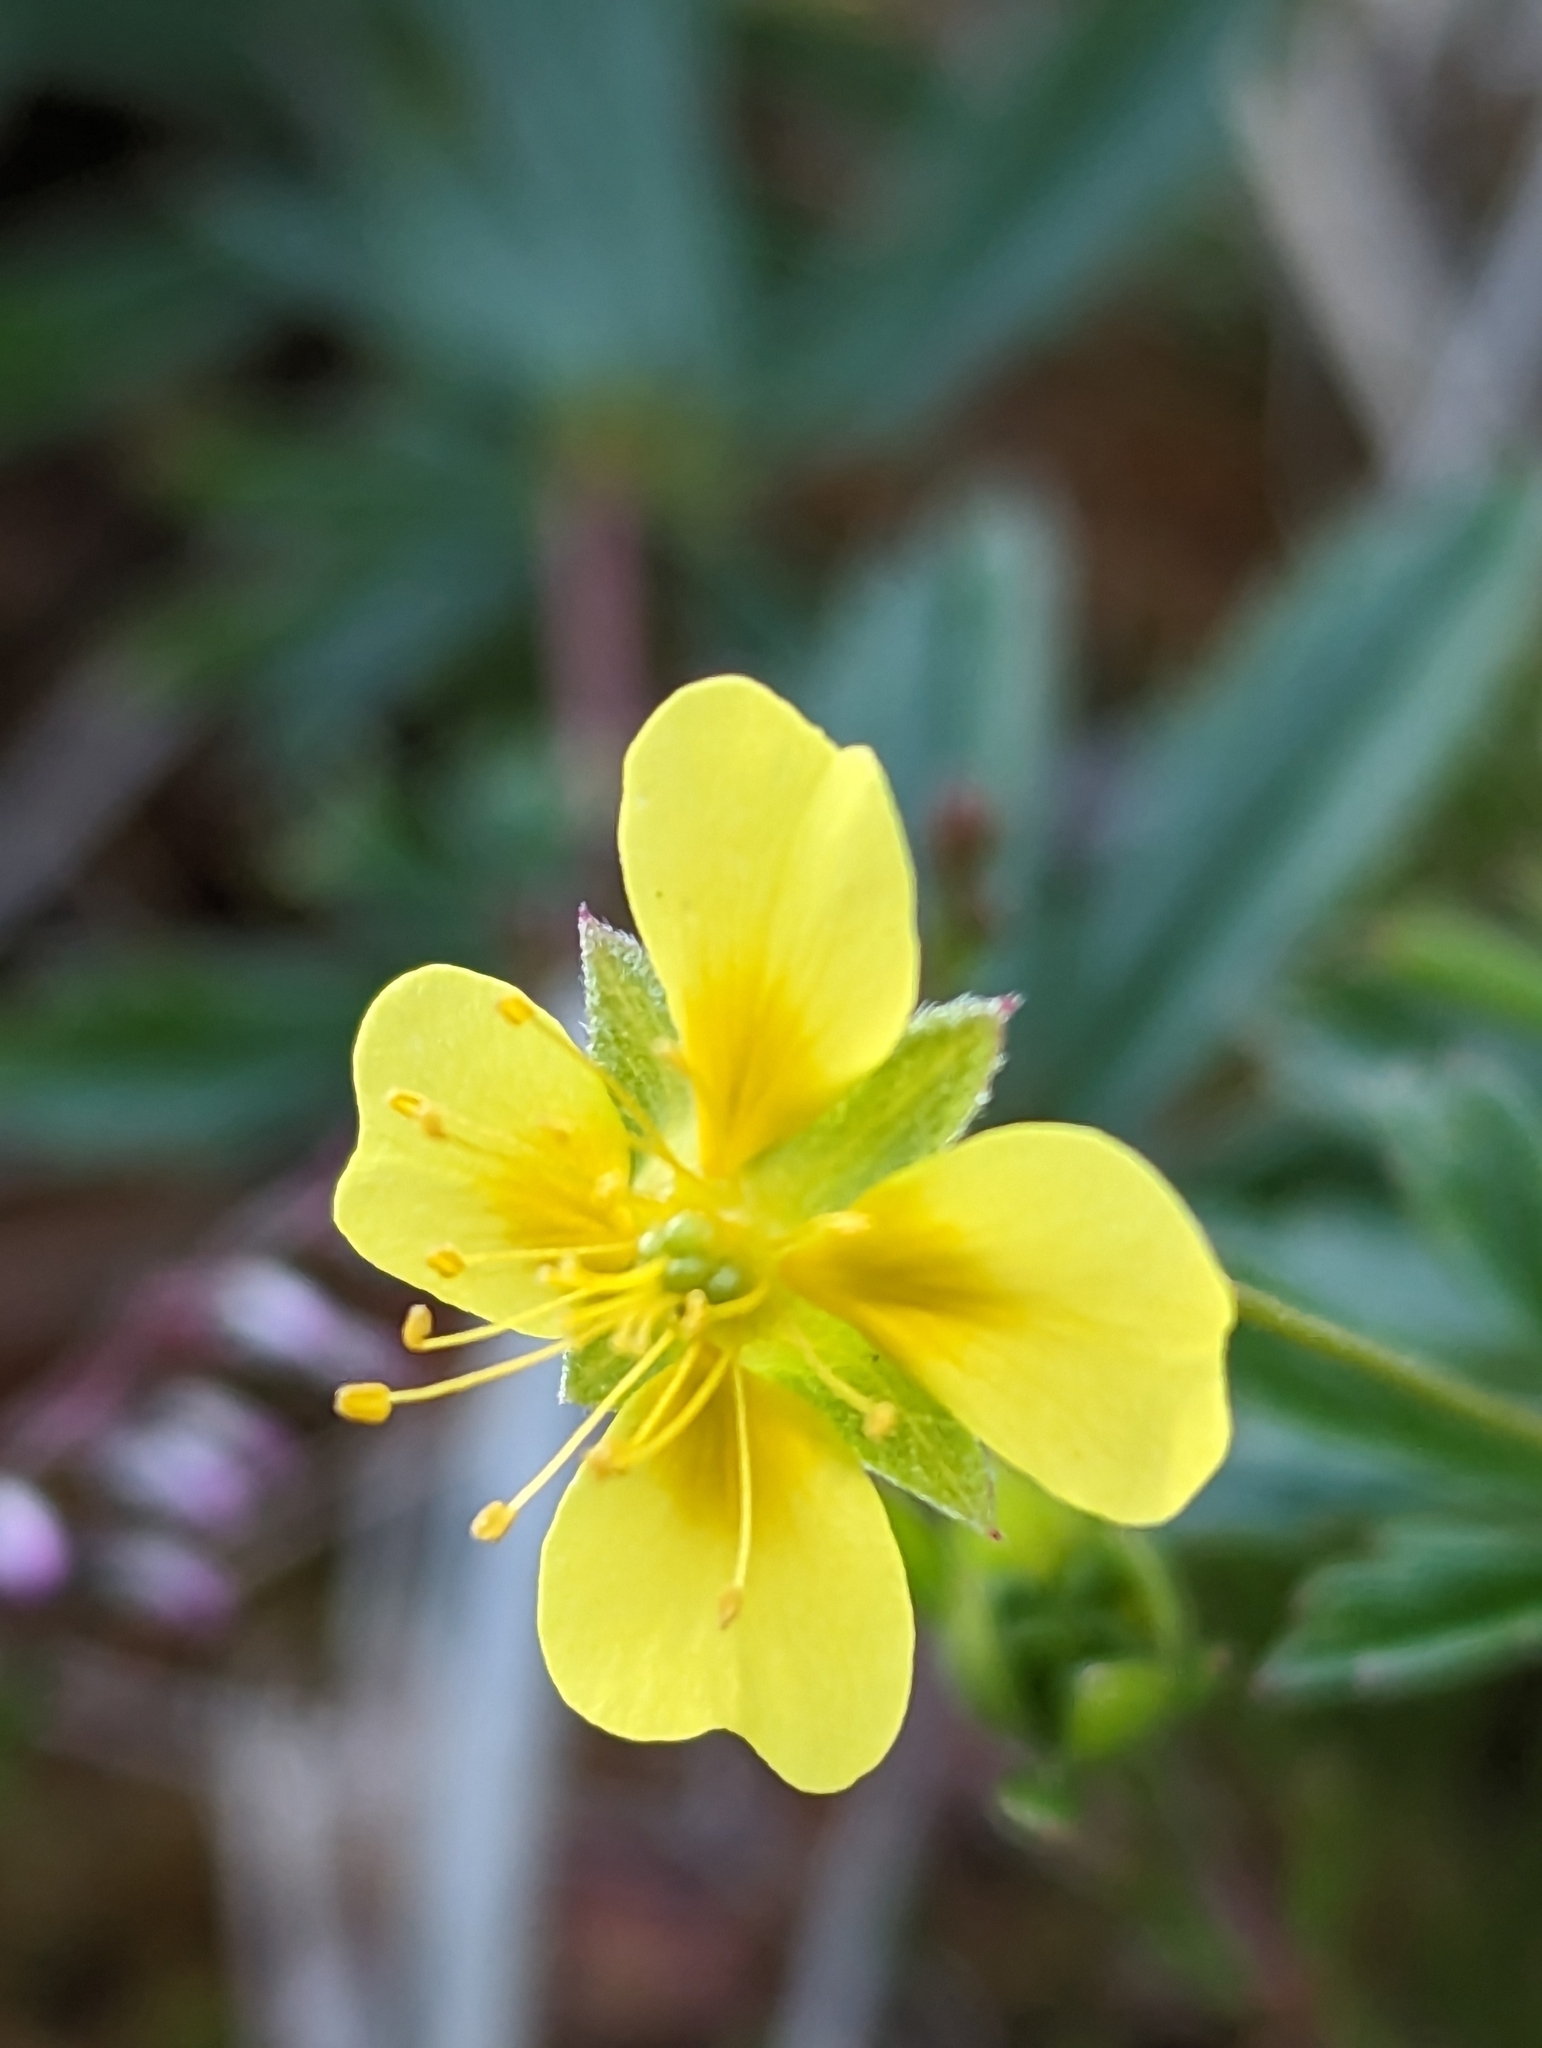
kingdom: Plantae
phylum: Tracheophyta
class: Magnoliopsida
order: Rosales
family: Rosaceae
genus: Potentilla
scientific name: Potentilla erecta
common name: Tormentil
